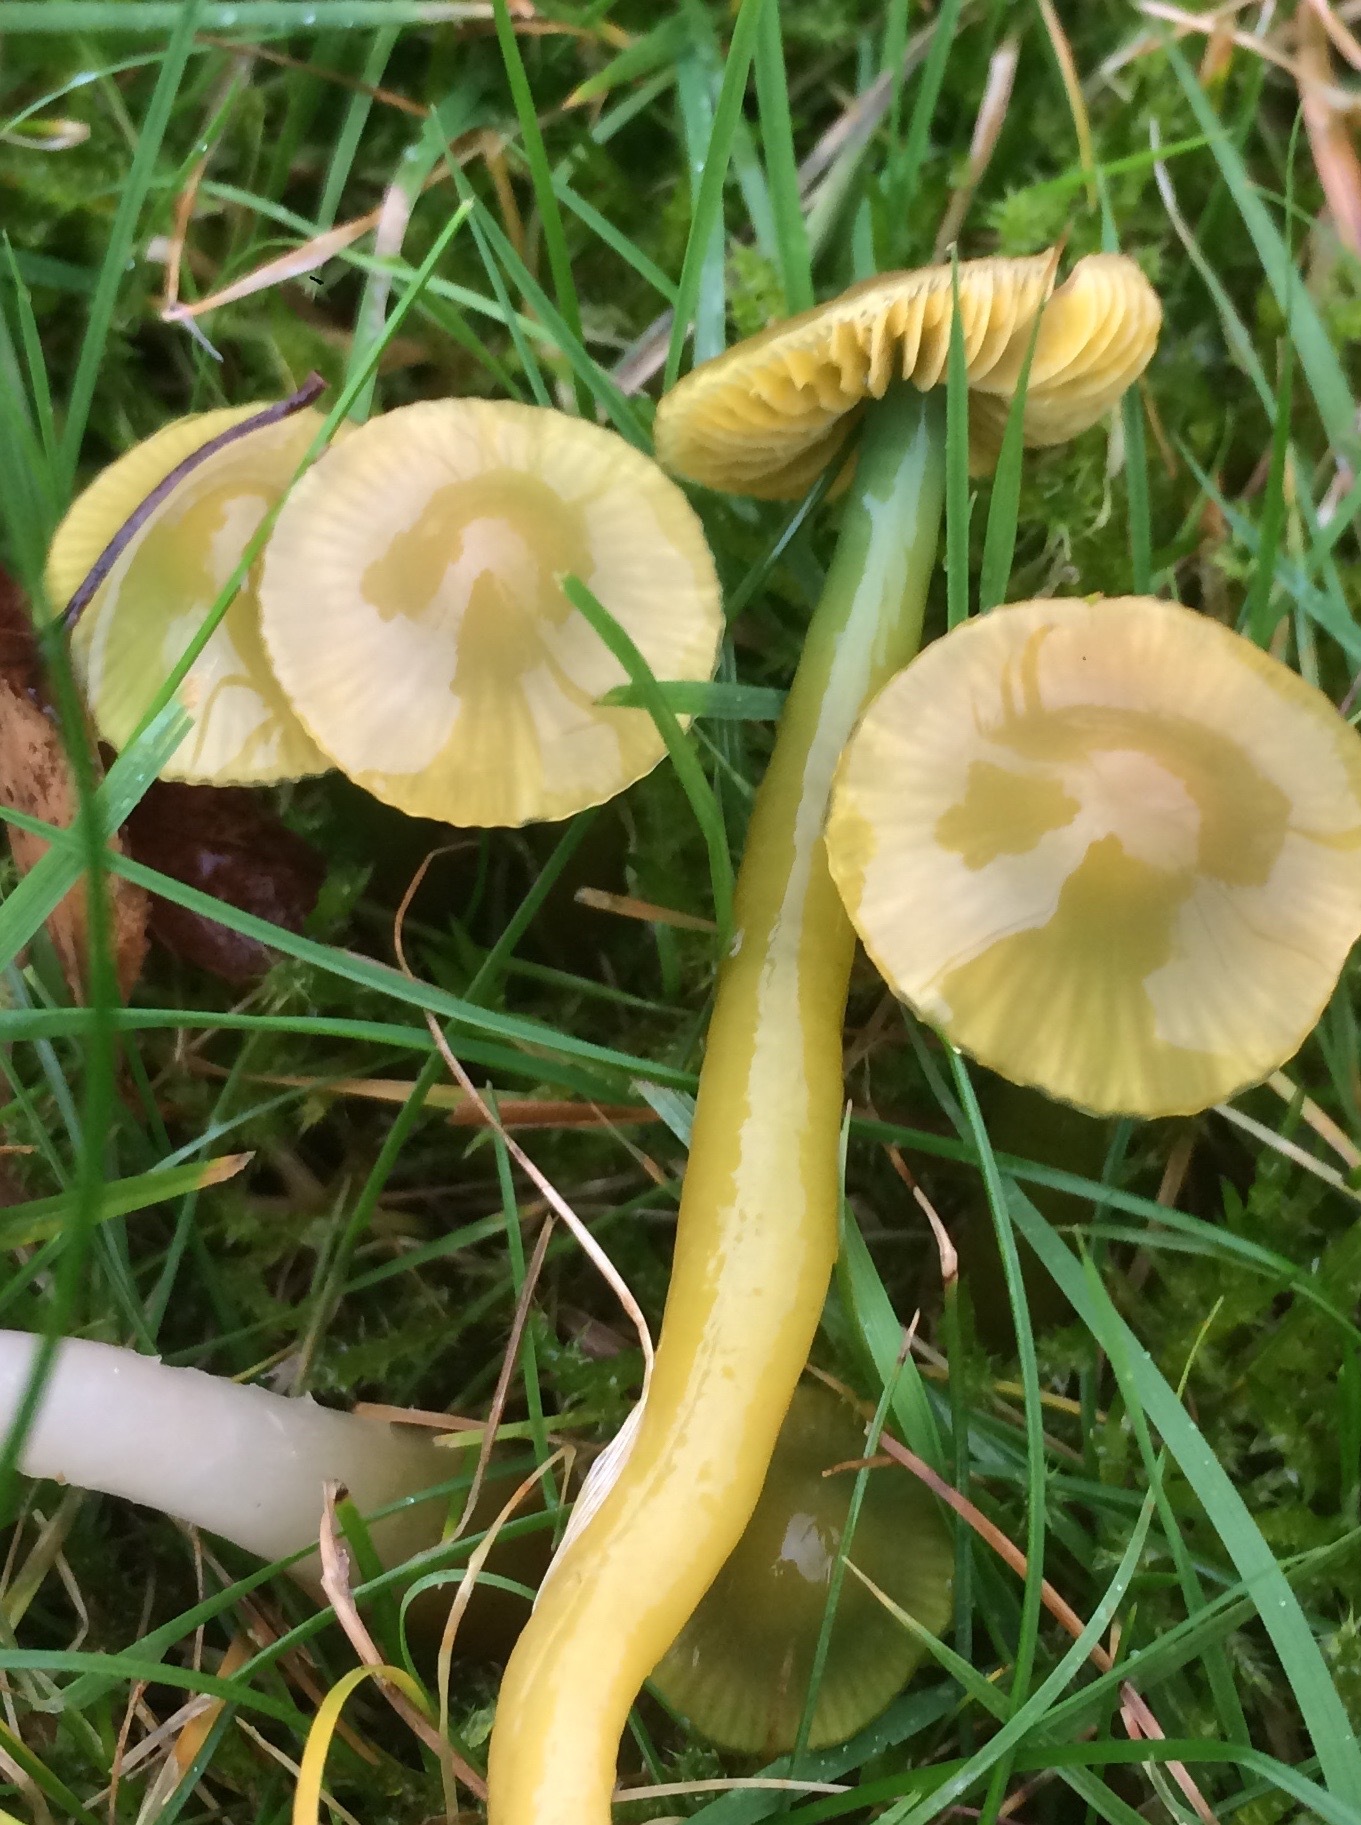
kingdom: Fungi
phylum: Basidiomycota
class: Agaricomycetes
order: Agaricales
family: Hygrophoraceae
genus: Gliophorus
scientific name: Gliophorus psittacinus
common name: Parrot wax-cap
